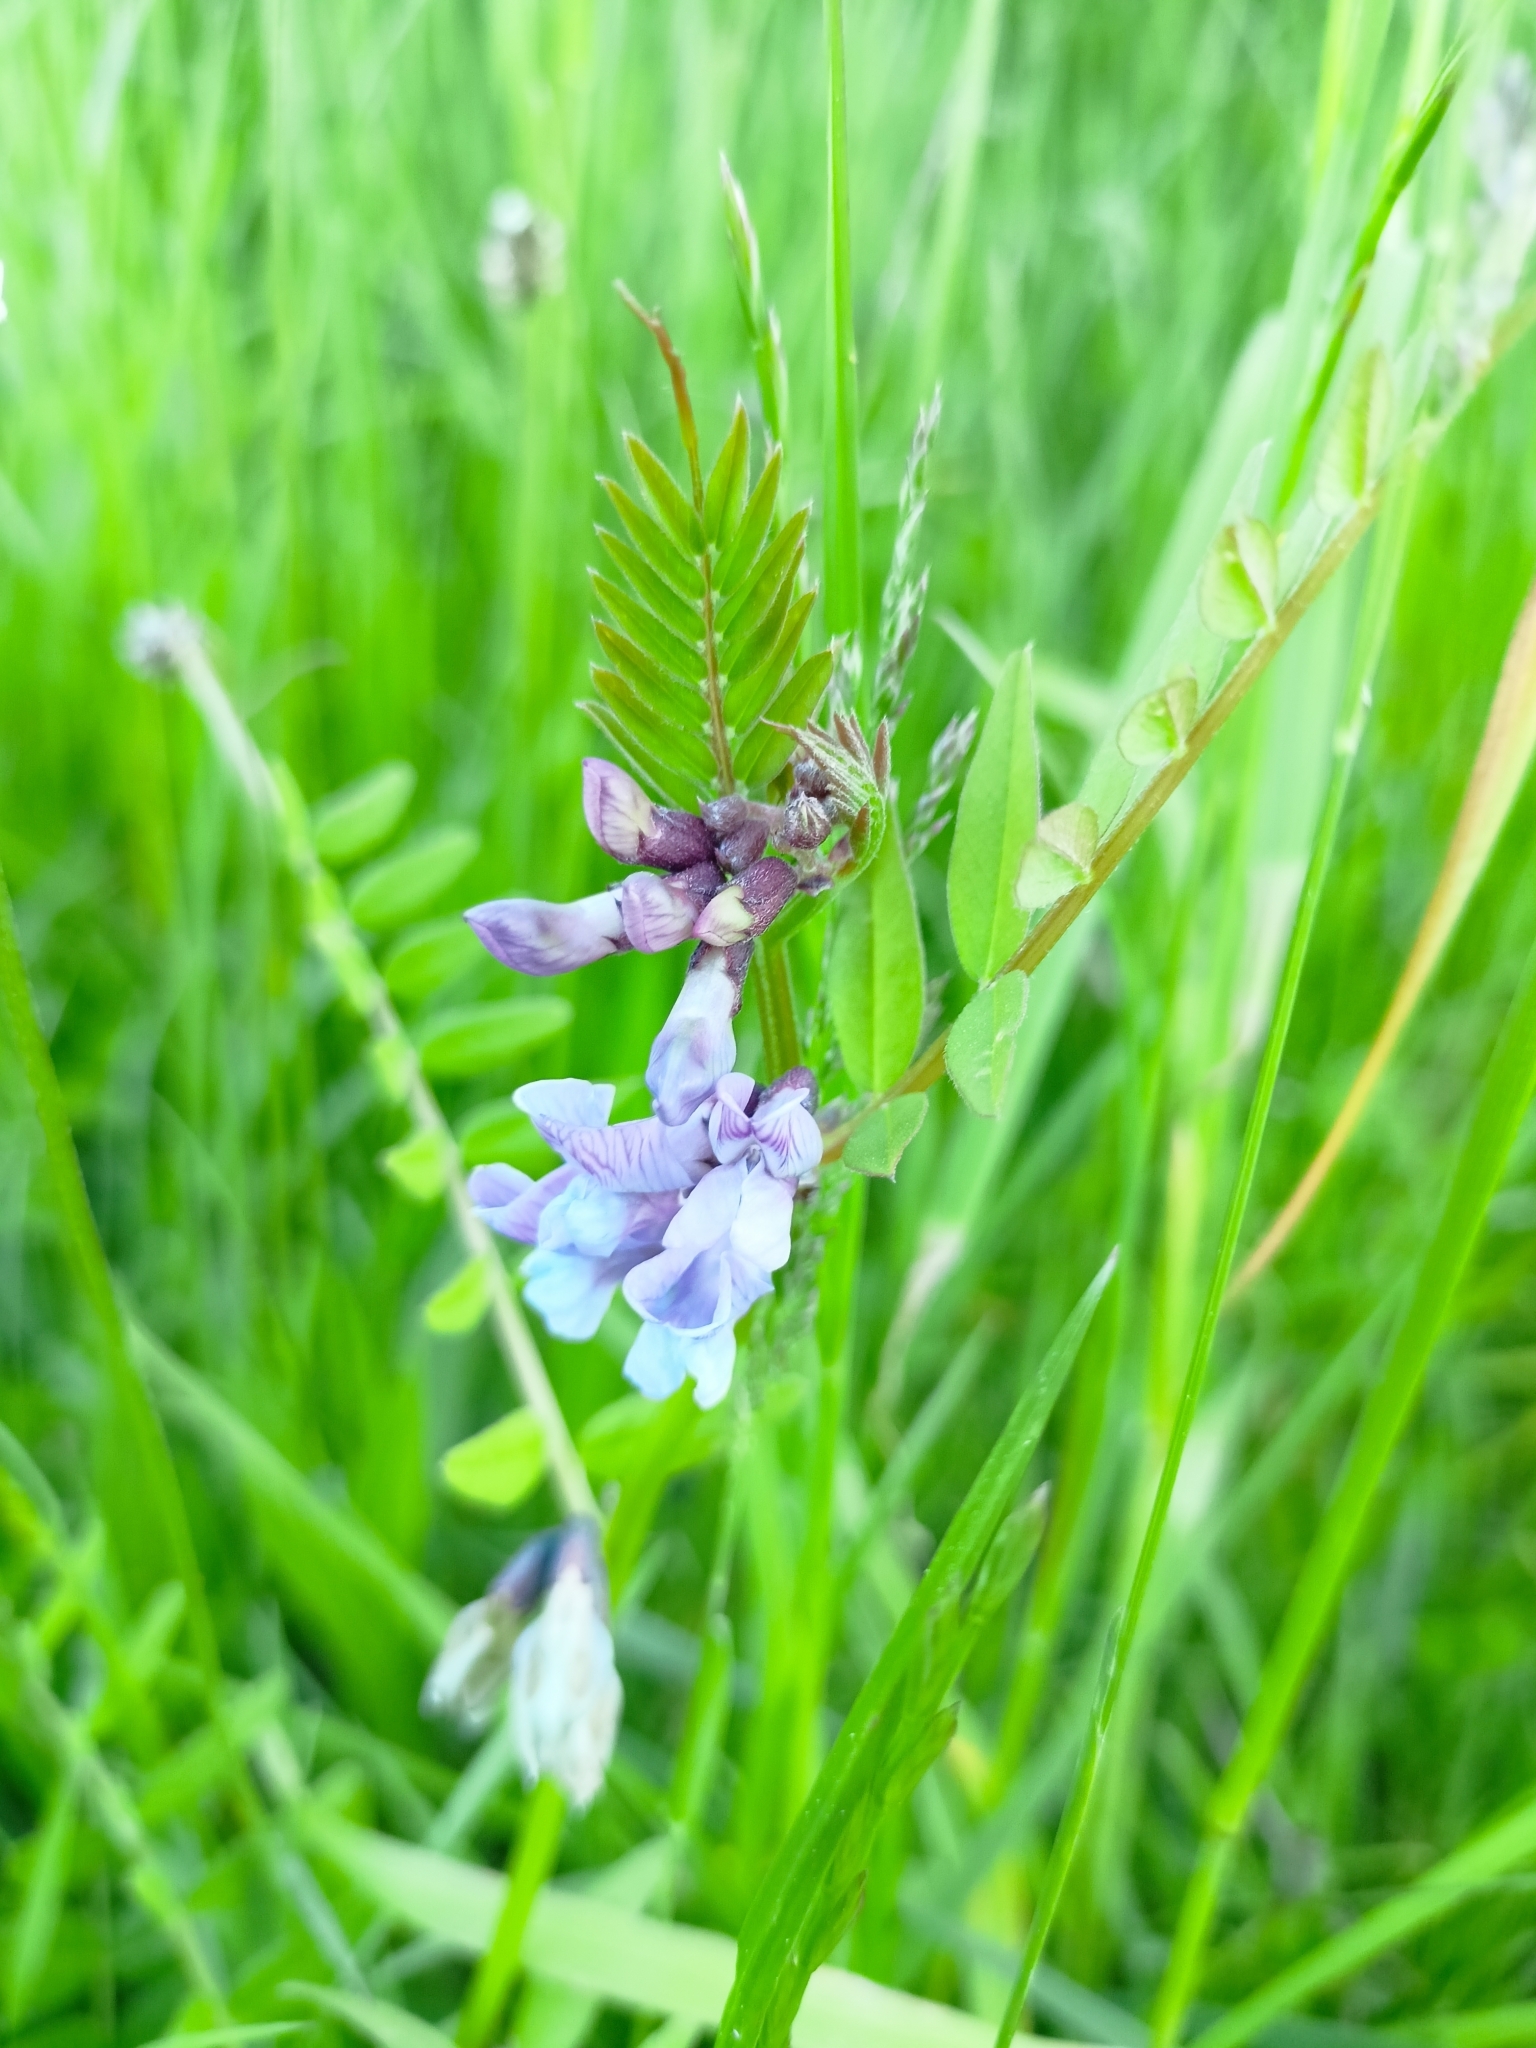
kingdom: Plantae
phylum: Tracheophyta
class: Magnoliopsida
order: Fabales
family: Fabaceae
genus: Vicia
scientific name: Vicia sepium
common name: Bush vetch
